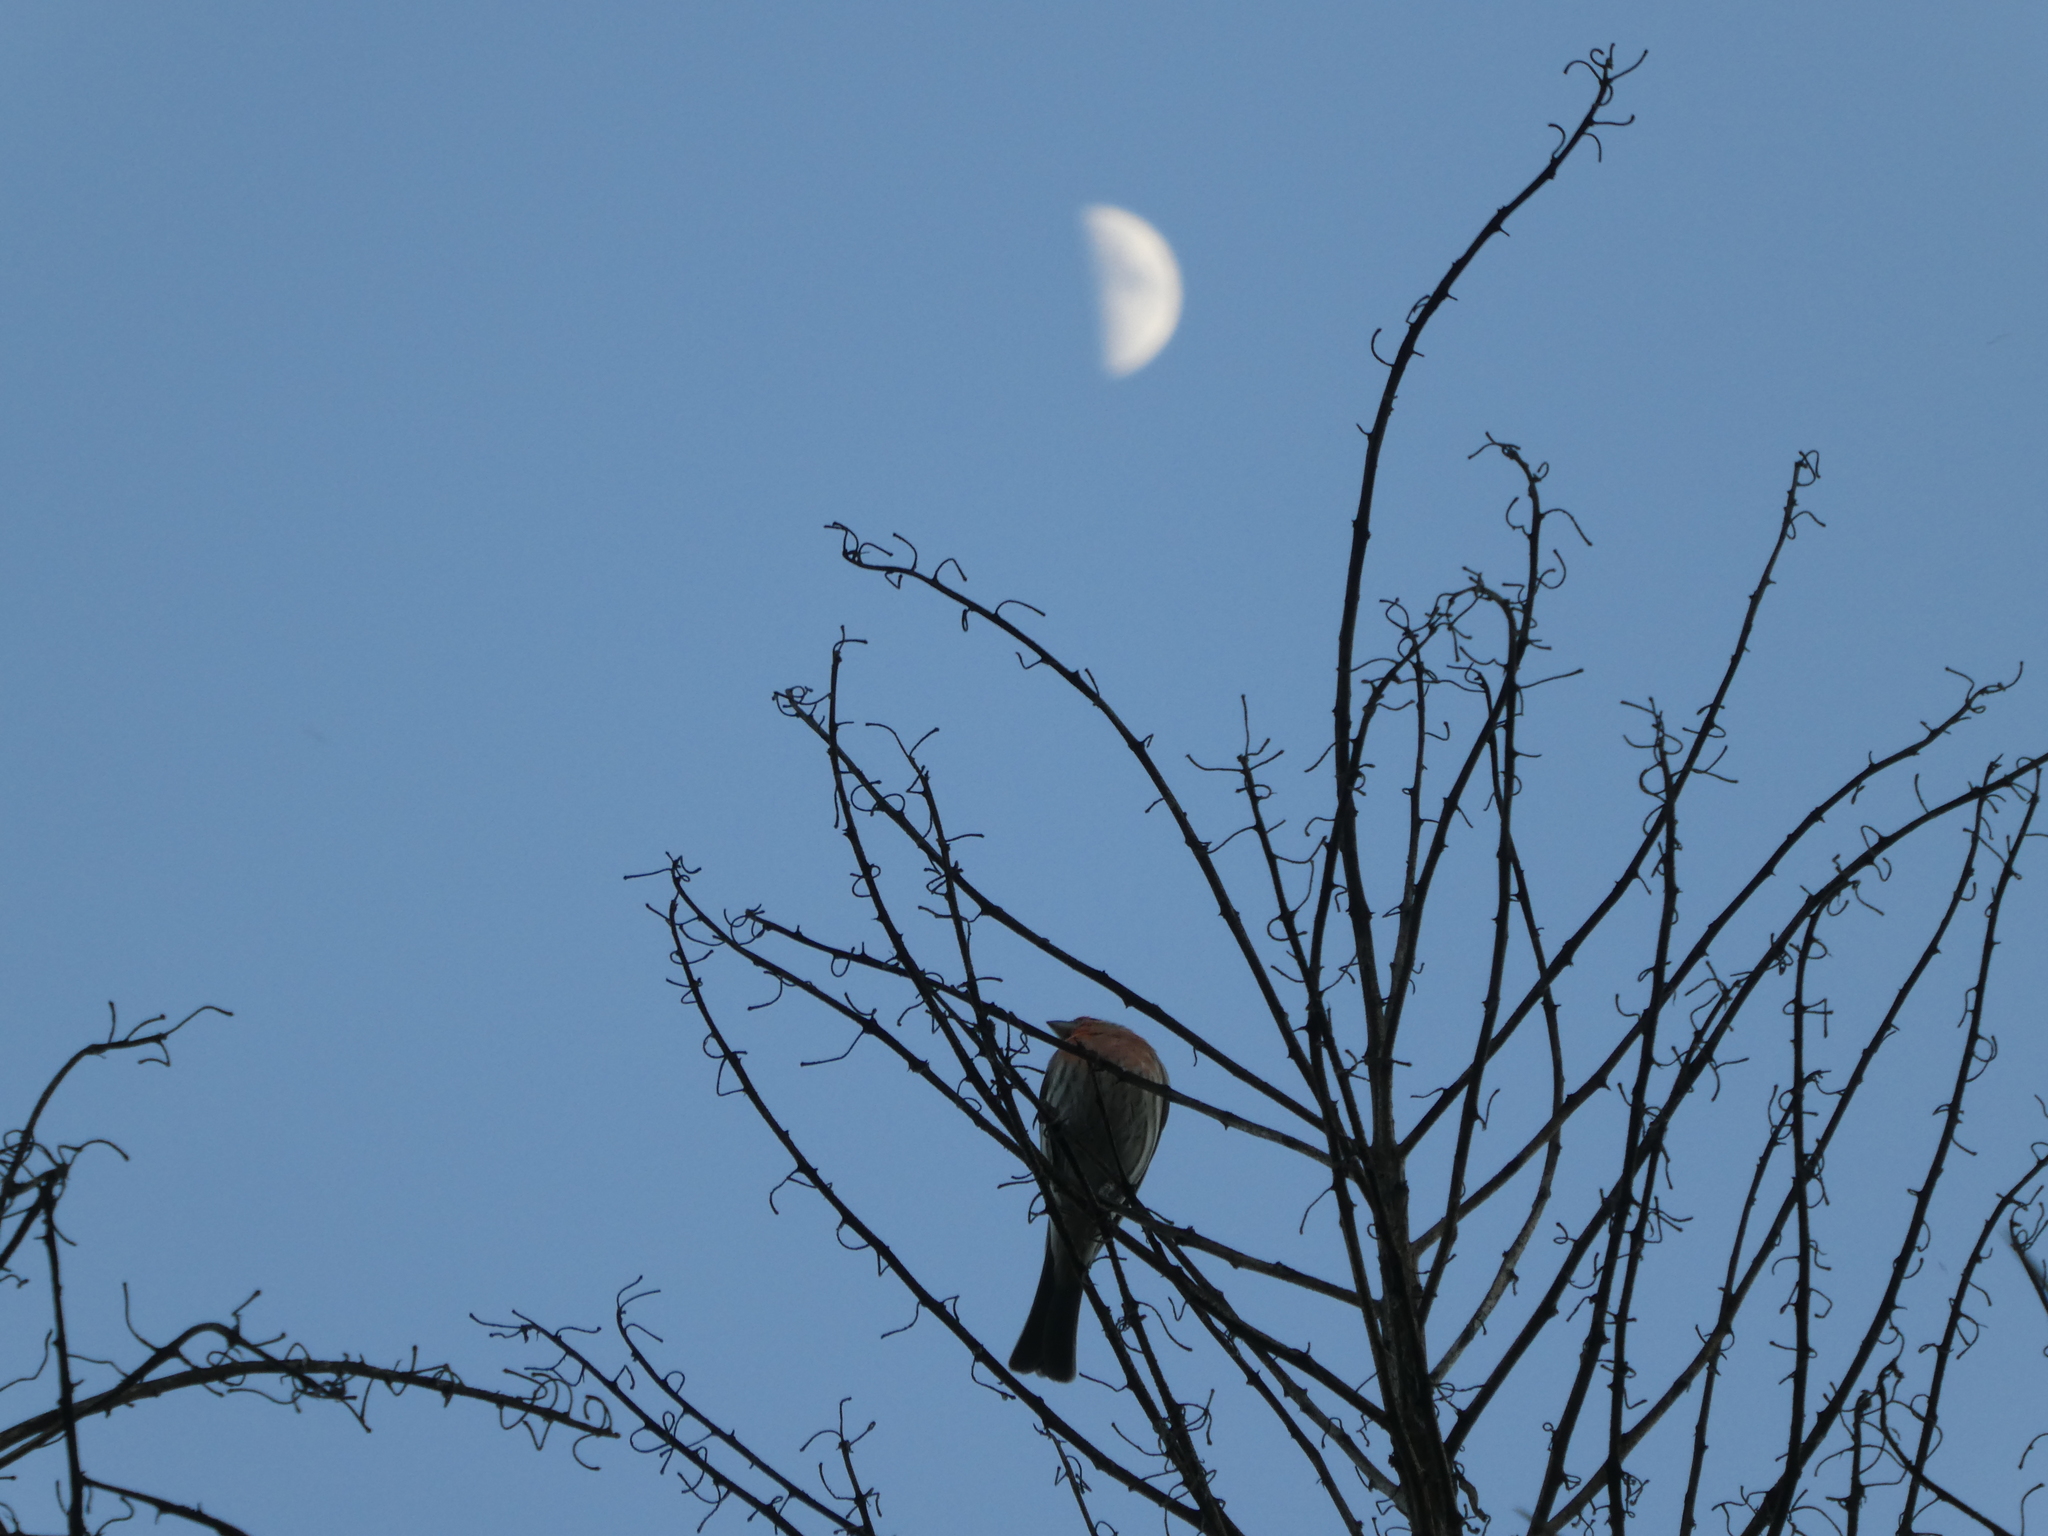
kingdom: Animalia
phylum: Chordata
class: Aves
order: Passeriformes
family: Fringillidae
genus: Haemorhous
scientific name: Haemorhous mexicanus
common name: House finch
